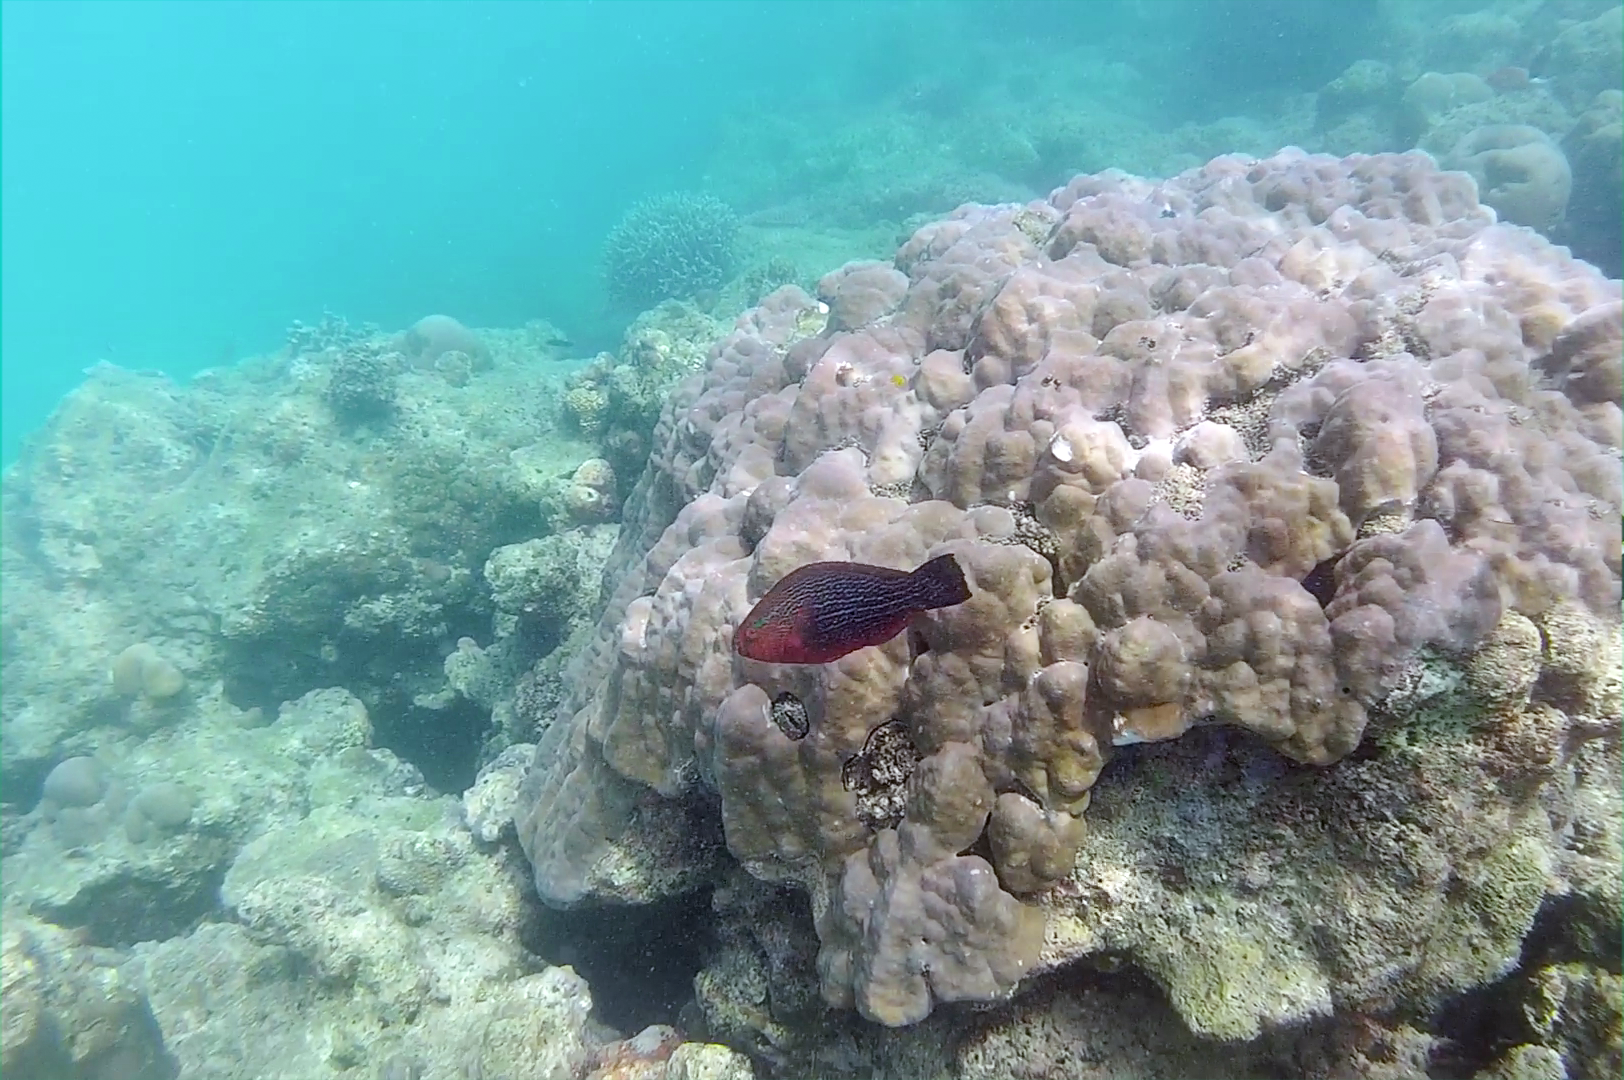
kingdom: Animalia
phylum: Chordata
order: Perciformes
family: Scaridae
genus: Scarus
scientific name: Scarus niger
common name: Dusky parrotfish
